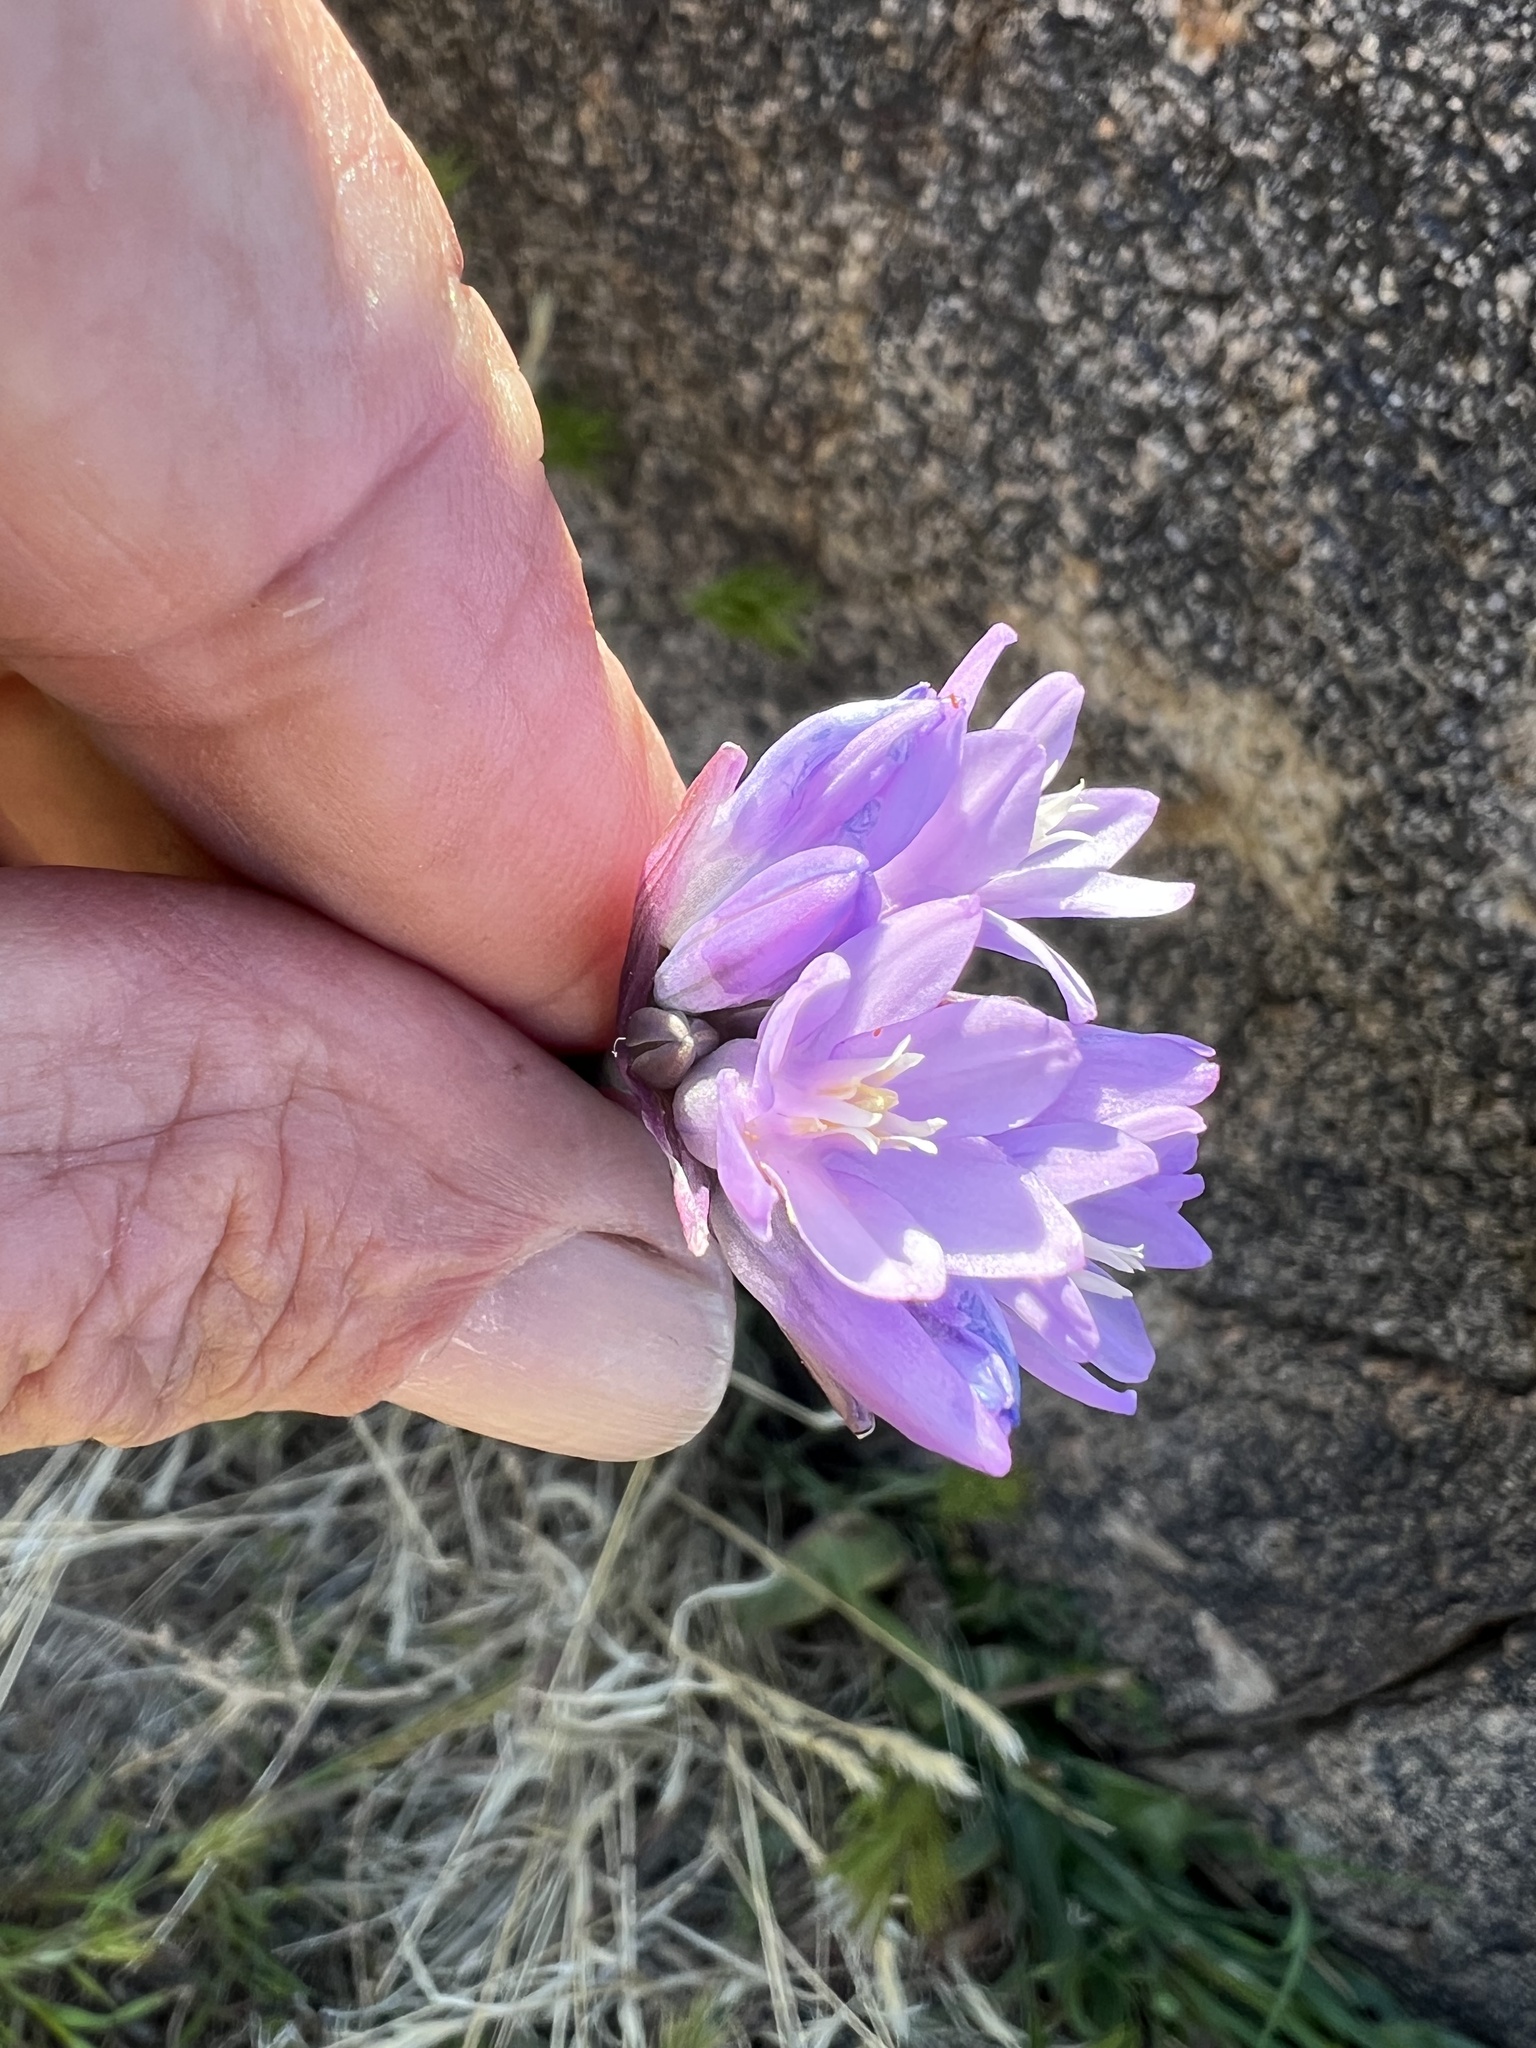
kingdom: Plantae
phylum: Tracheophyta
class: Liliopsida
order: Asparagales
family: Asparagaceae
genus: Dipterostemon
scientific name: Dipterostemon capitatus
